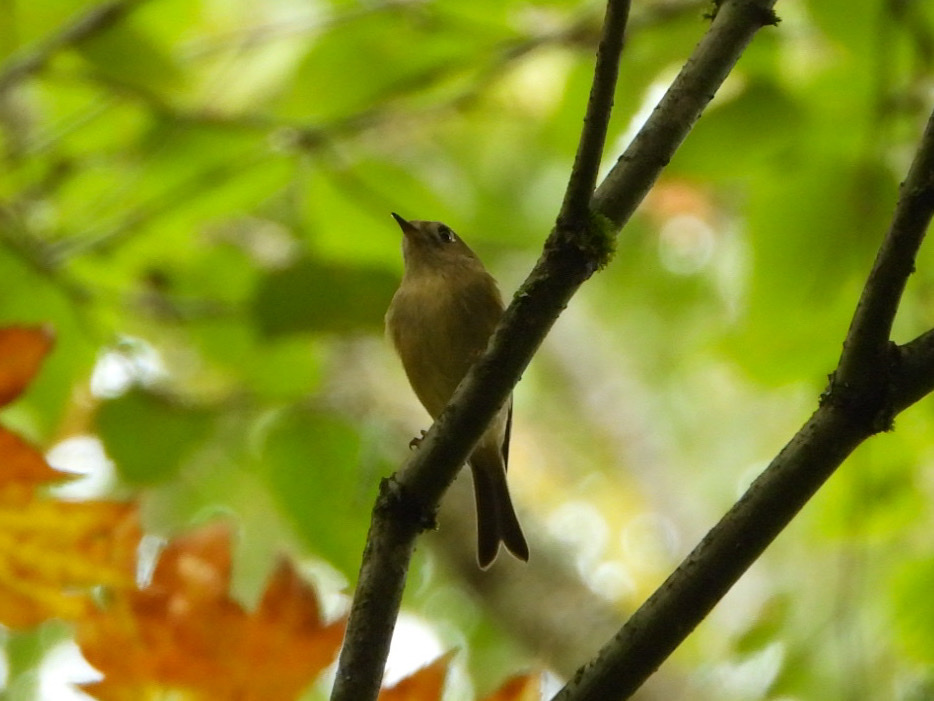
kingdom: Animalia
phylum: Chordata
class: Aves
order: Passeriformes
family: Regulidae
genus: Regulus
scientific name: Regulus calendula
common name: Ruby-crowned kinglet
